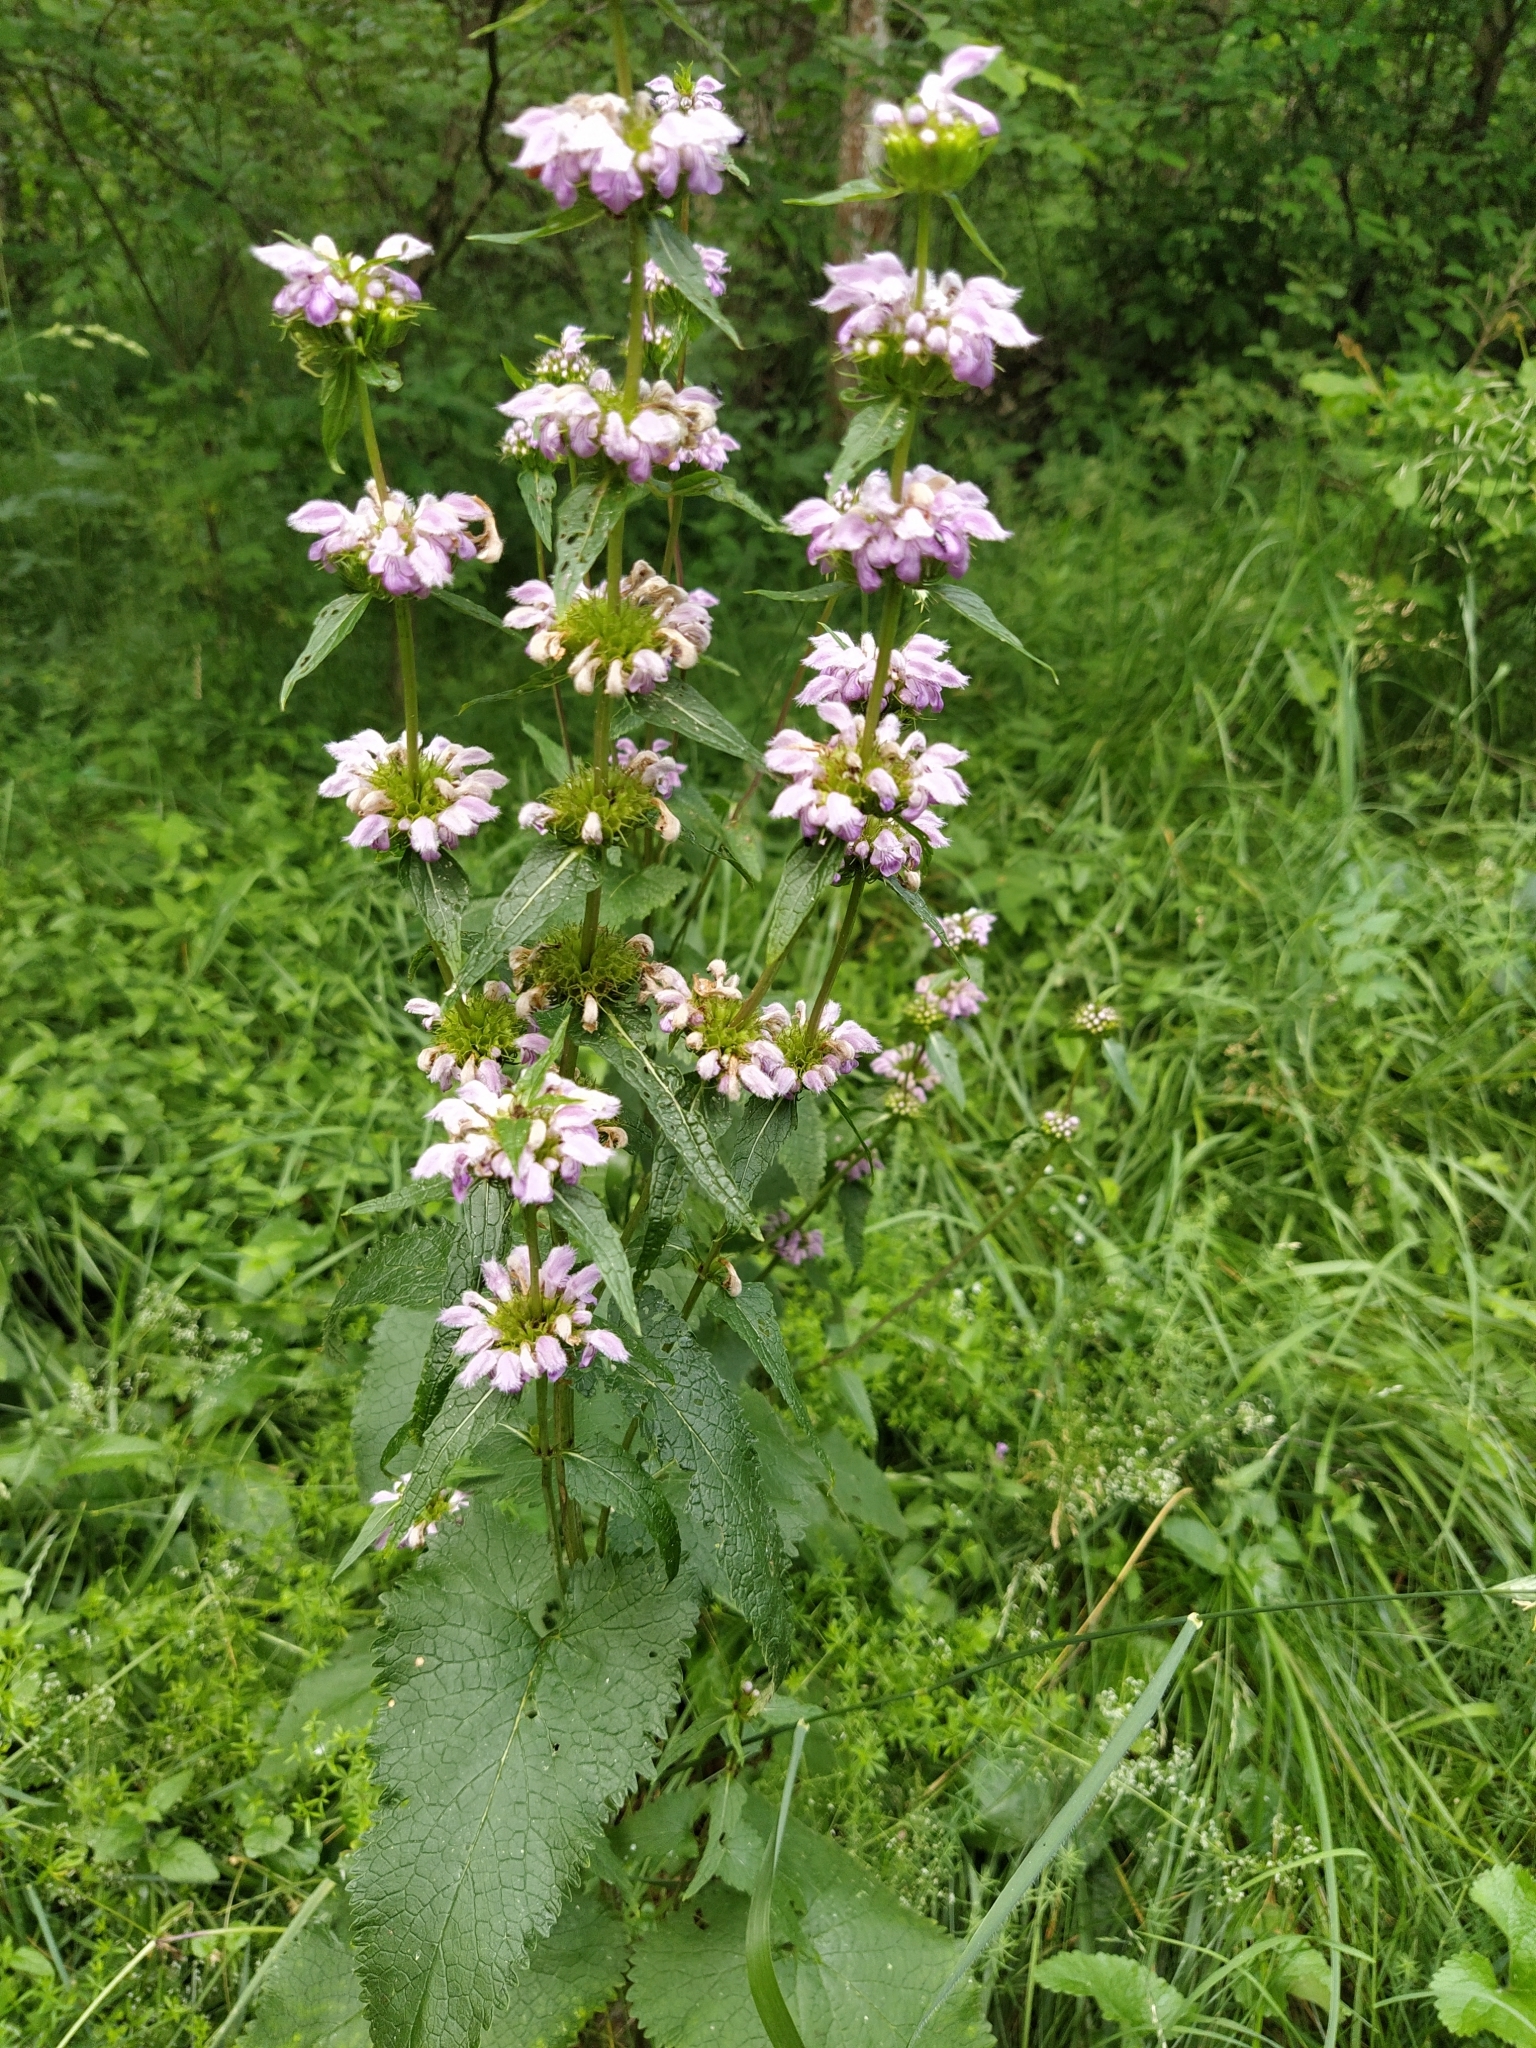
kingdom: Plantae
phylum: Tracheophyta
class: Magnoliopsida
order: Lamiales
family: Lamiaceae
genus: Phlomoides
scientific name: Phlomoides tuberosa
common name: Tuberous jerusalem sage
